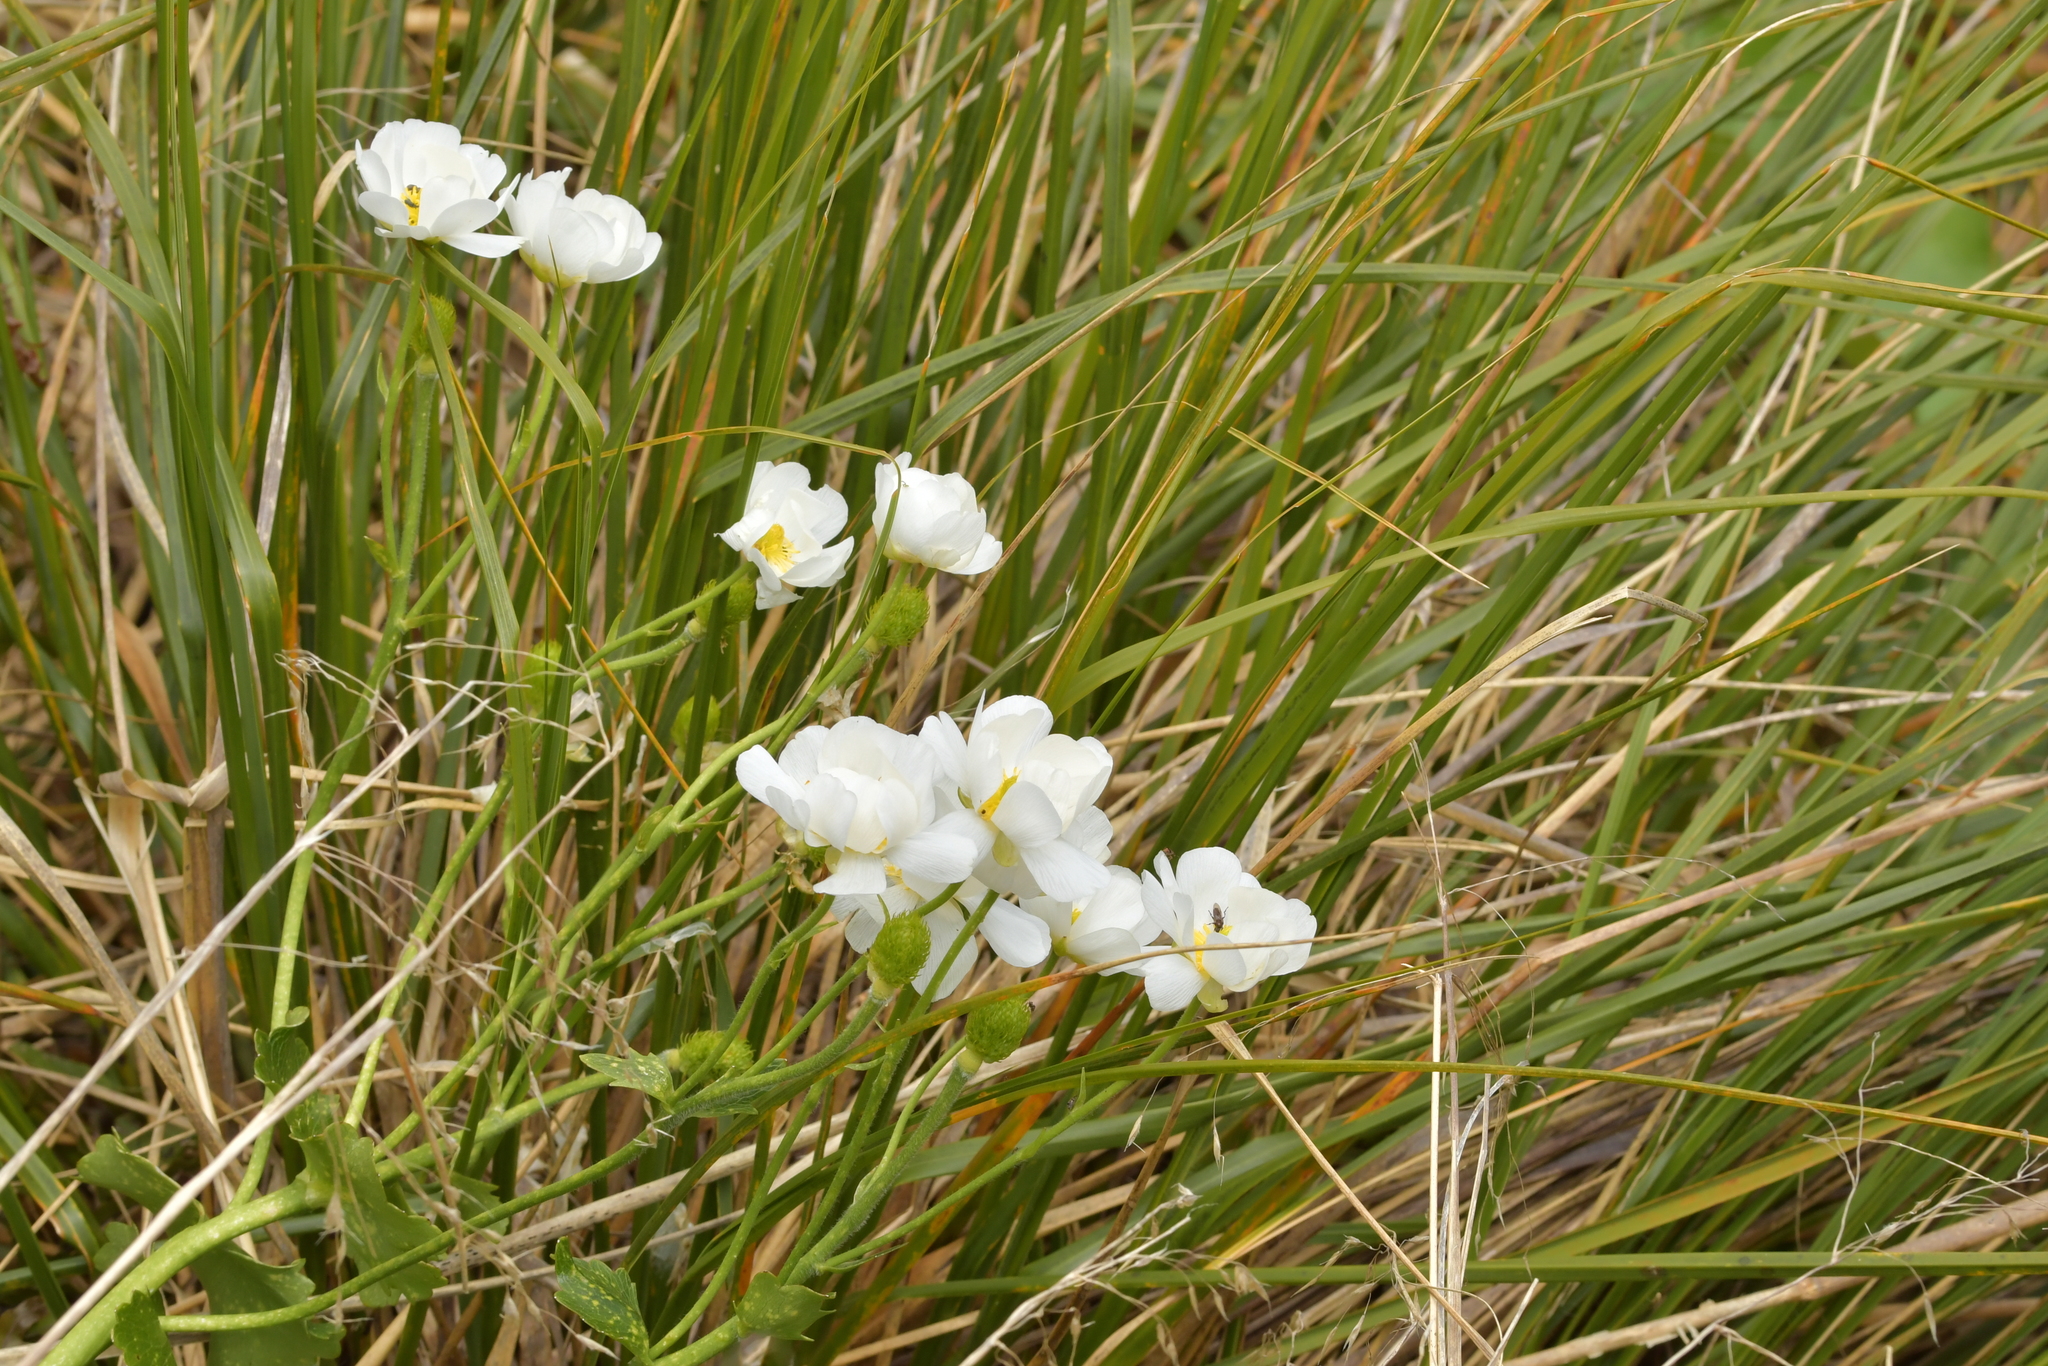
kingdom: Plantae
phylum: Tracheophyta
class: Magnoliopsida
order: Ranunculales
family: Ranunculaceae
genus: Ranunculus
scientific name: Ranunculus lyallii
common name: Mountain-lily
